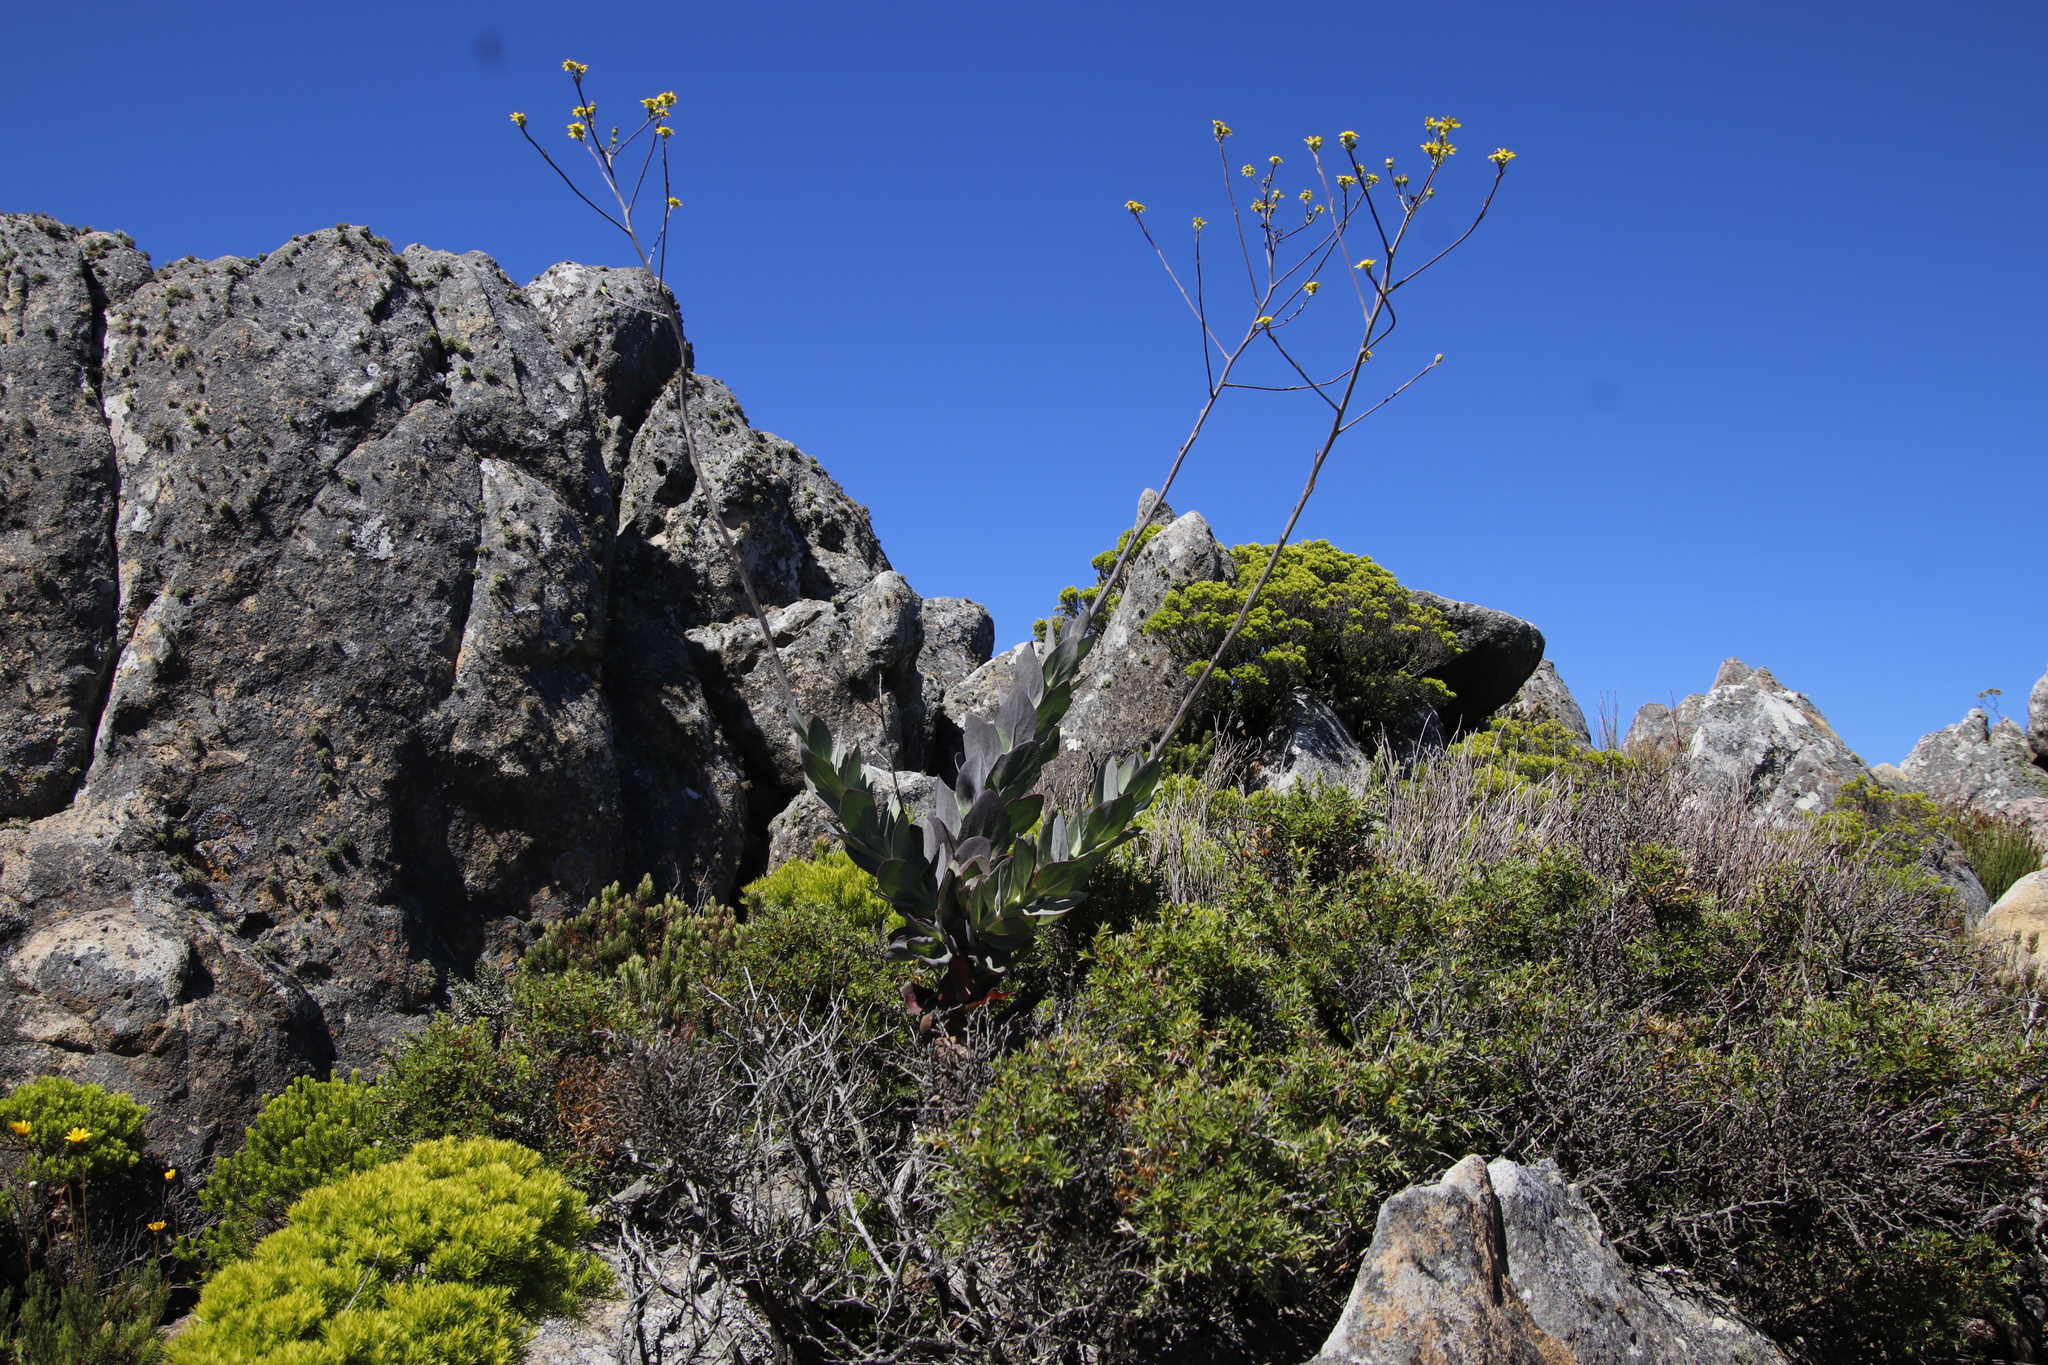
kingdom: Plantae
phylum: Tracheophyta
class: Magnoliopsida
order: Asterales
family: Asteraceae
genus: Othonna
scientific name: Othonna quinquedentata
